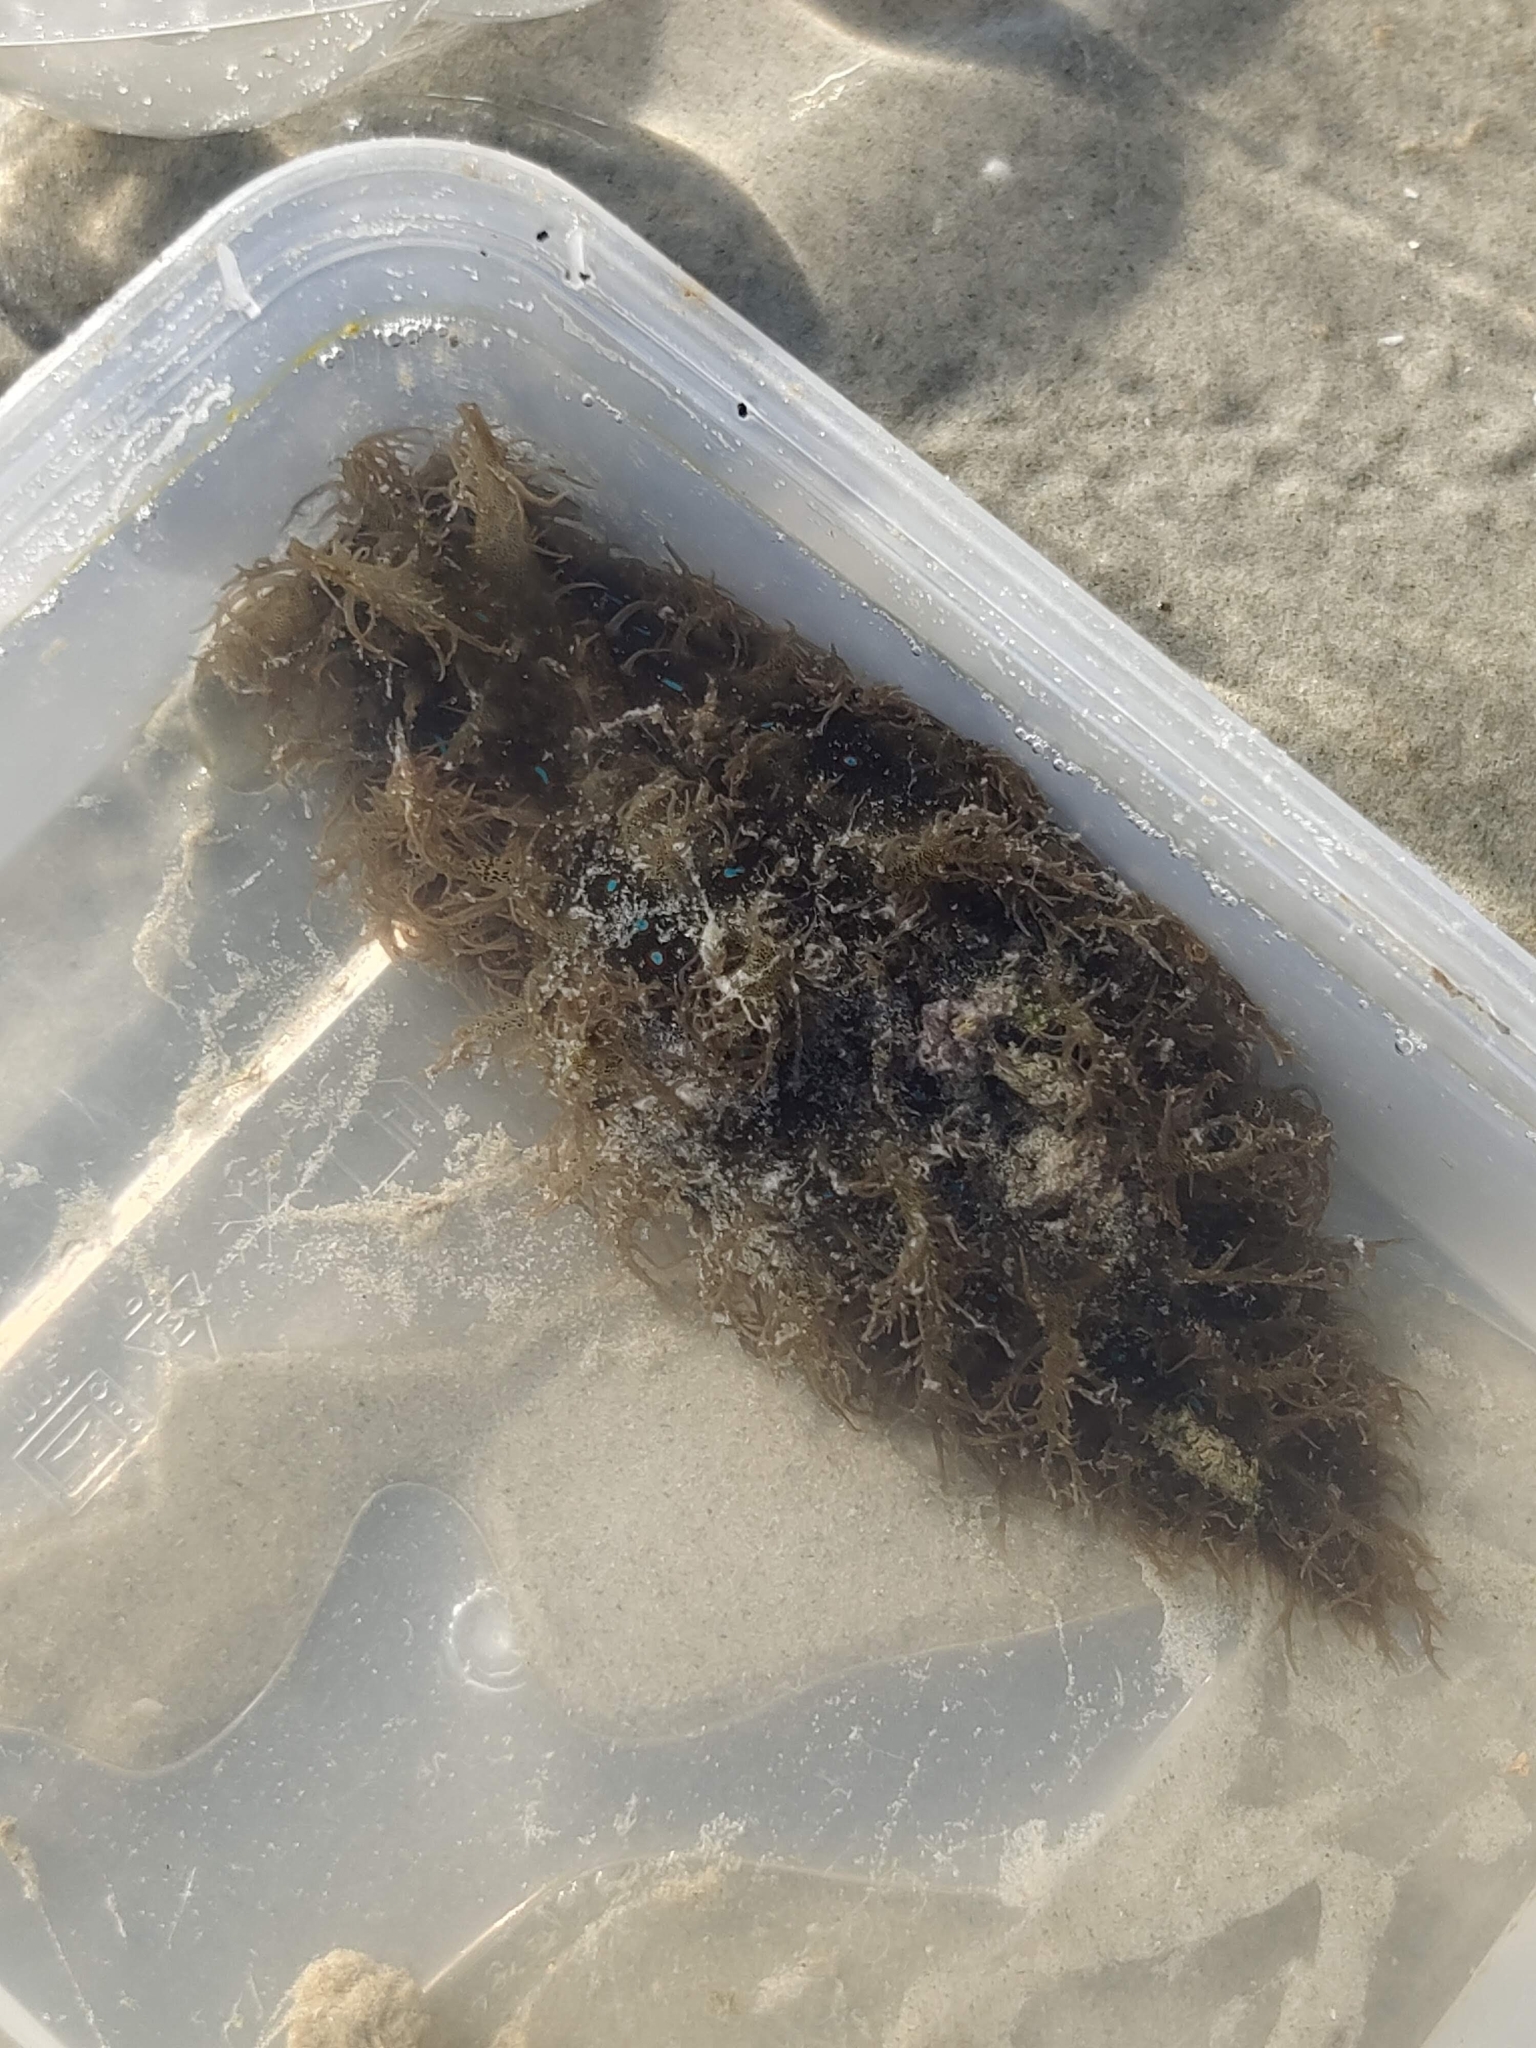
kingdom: Animalia
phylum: Mollusca
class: Gastropoda
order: Aplysiida
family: Aplysiidae
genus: Bursatella
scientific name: Bursatella leachii
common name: Shaggy sea hare
